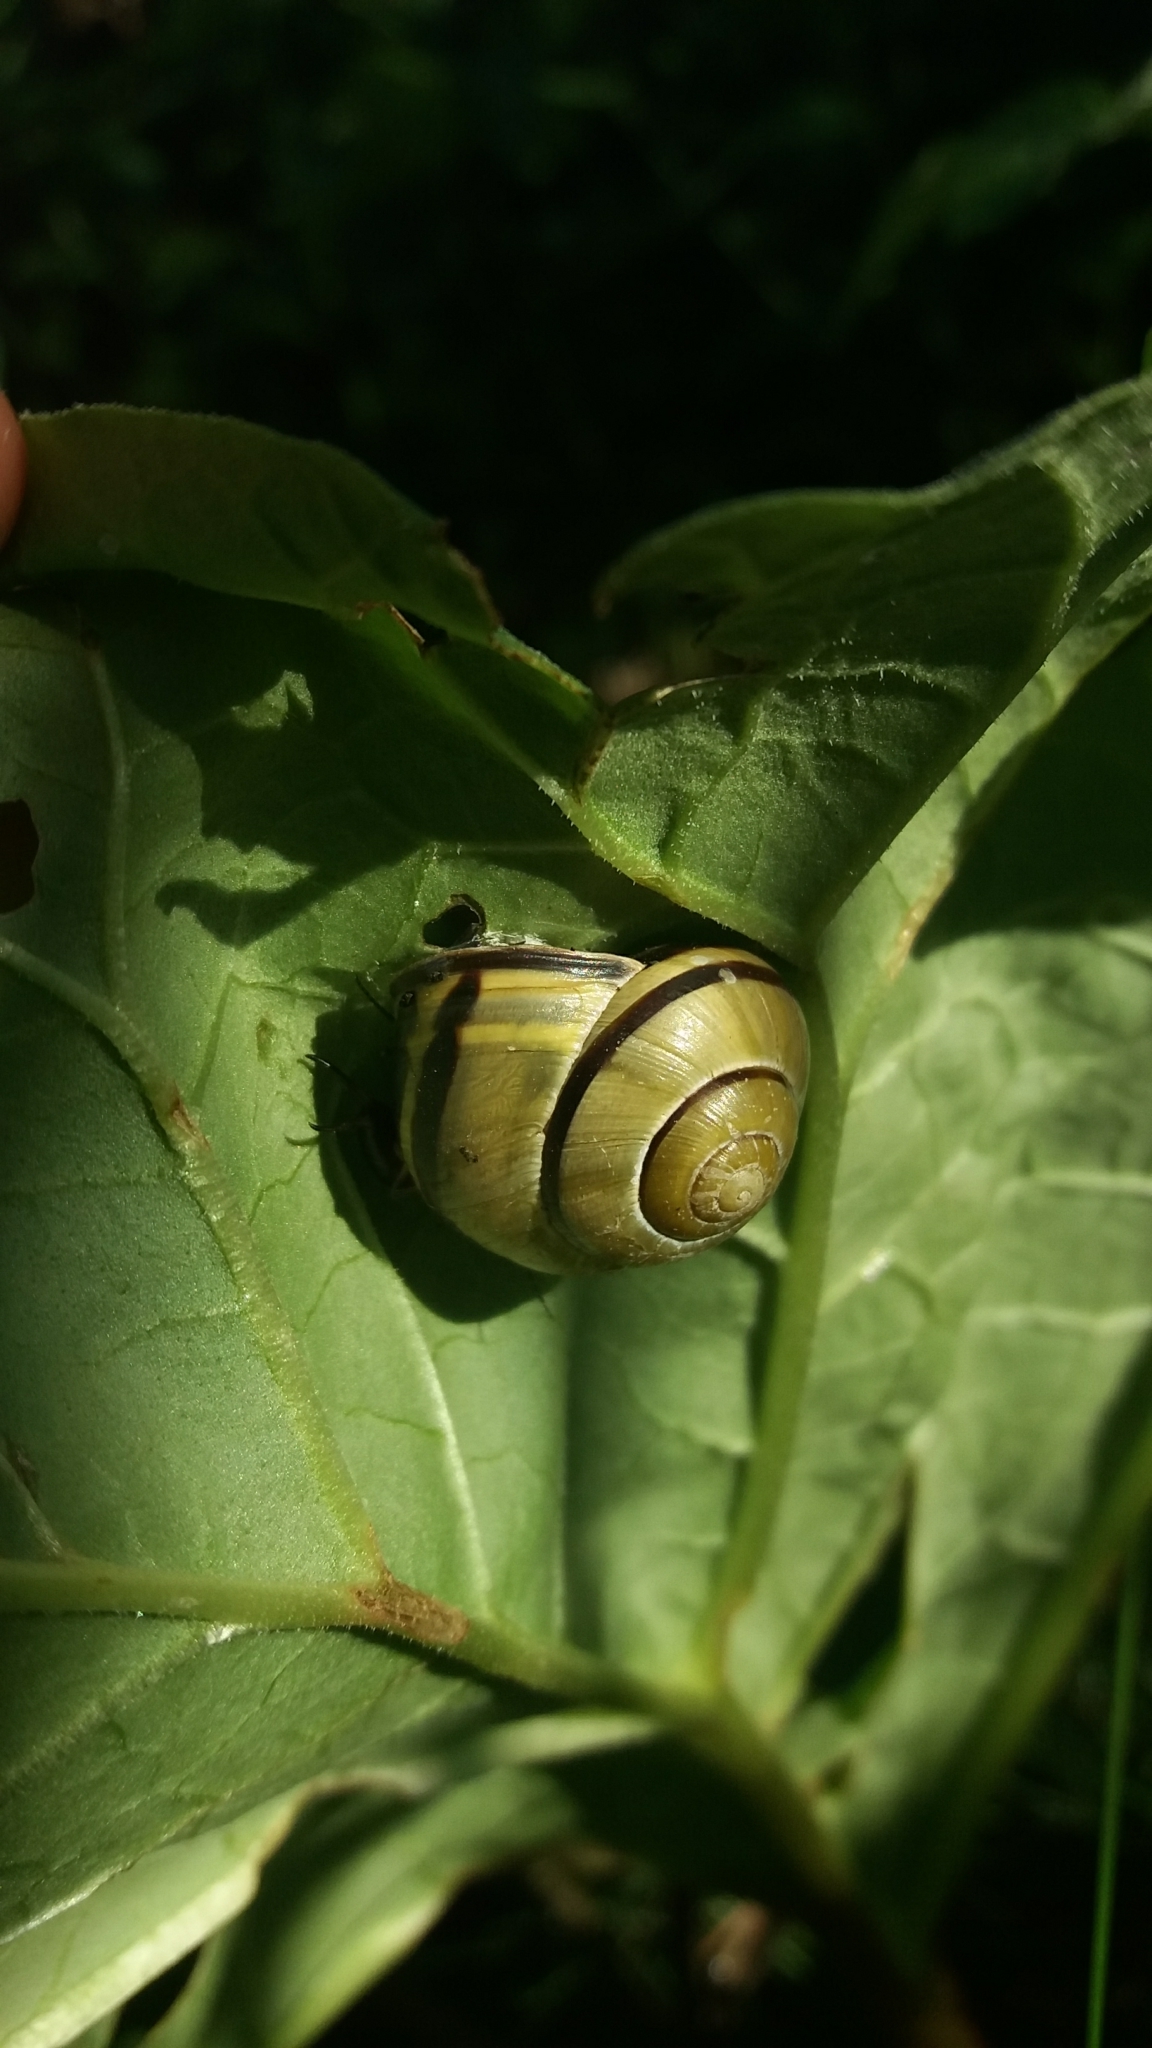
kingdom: Animalia
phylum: Mollusca
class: Gastropoda
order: Stylommatophora
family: Helicidae
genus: Cepaea
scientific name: Cepaea nemoralis
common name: Grovesnail
